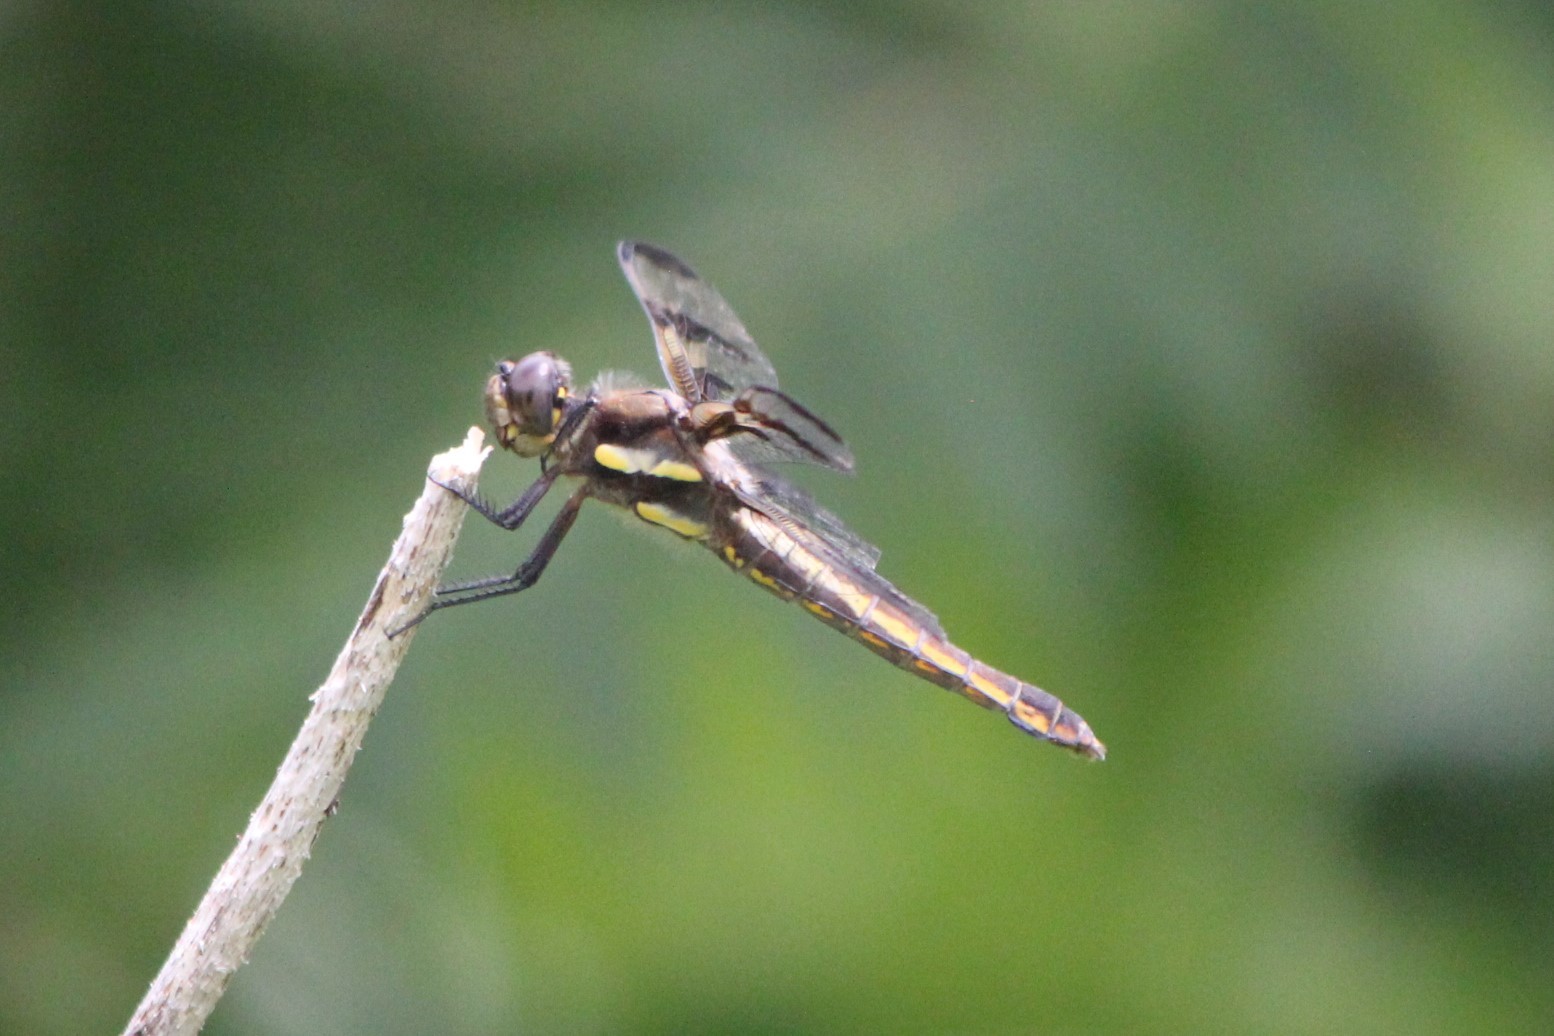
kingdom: Animalia
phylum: Arthropoda
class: Insecta
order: Odonata
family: Libellulidae
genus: Libellula
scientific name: Libellula pulchella
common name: Twelve-spotted skimmer
